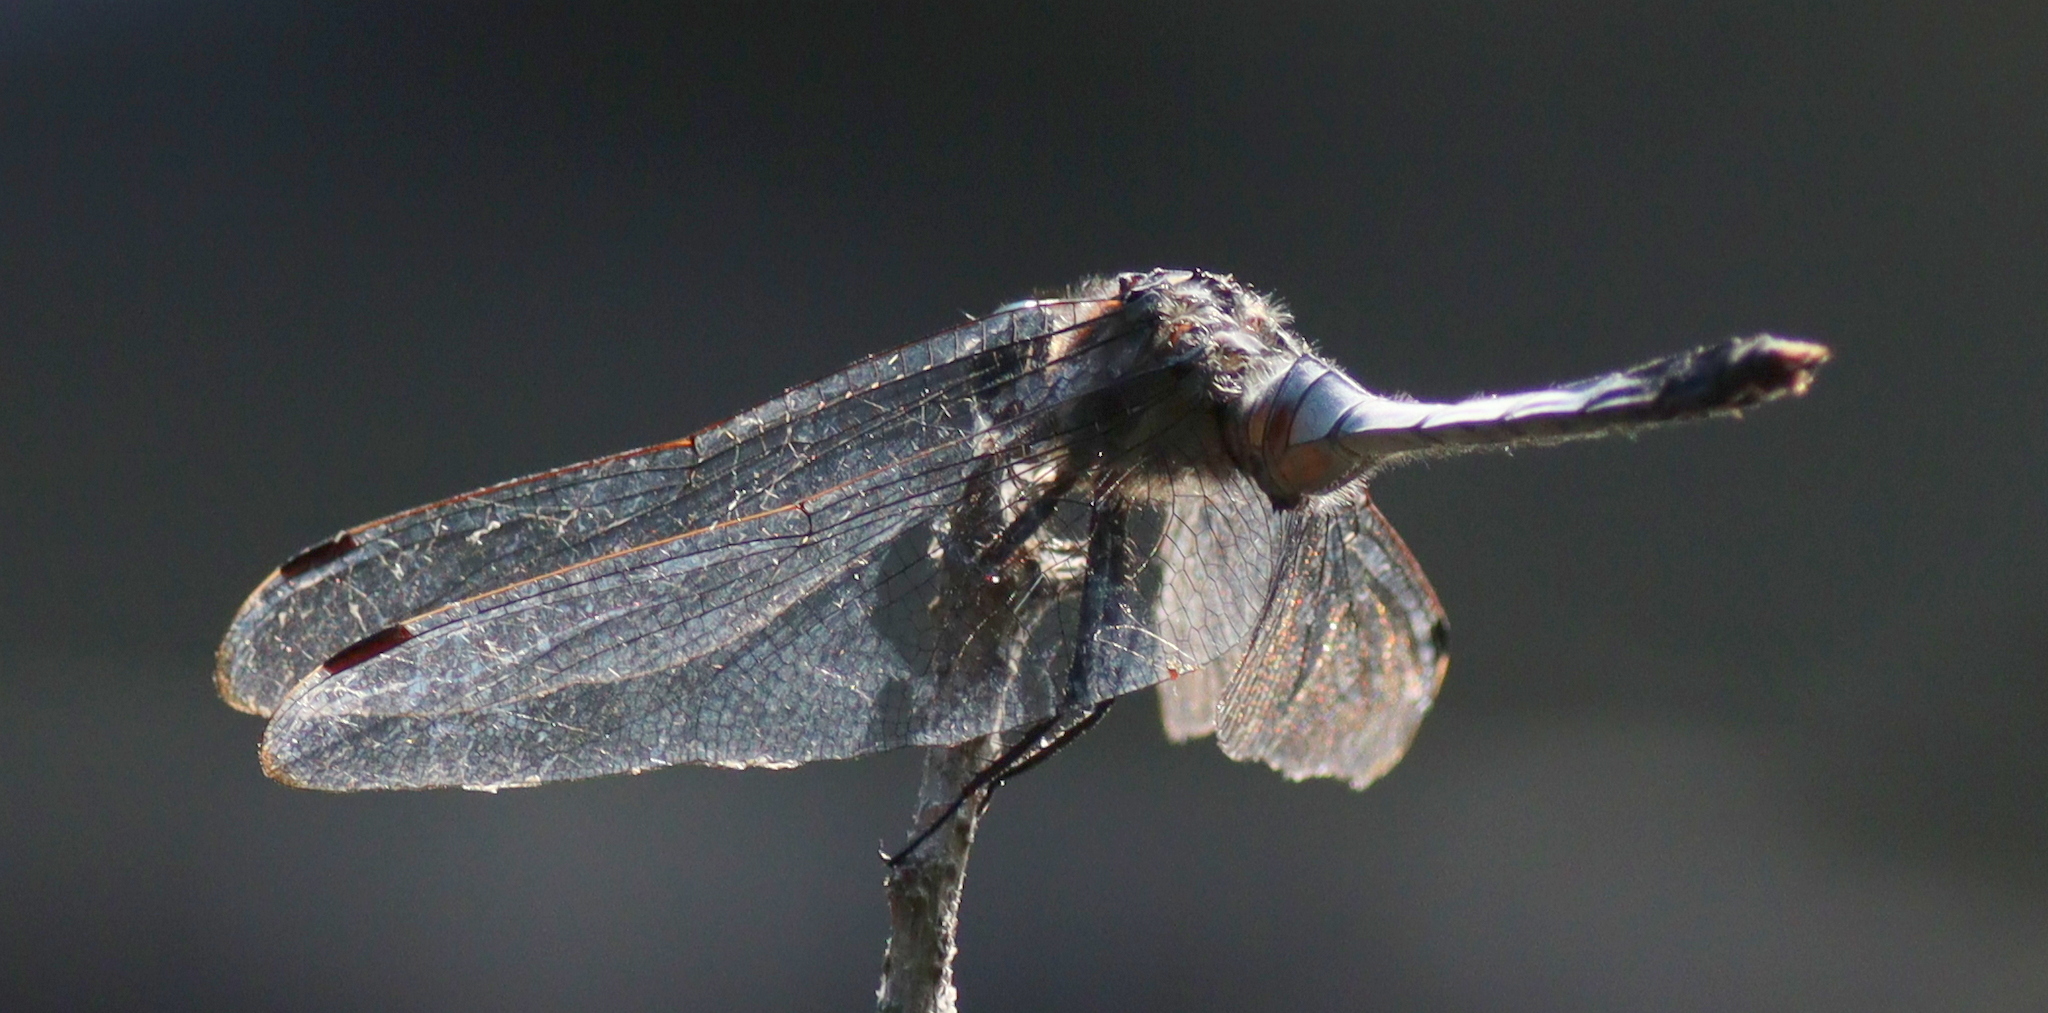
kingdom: Animalia
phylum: Arthropoda
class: Insecta
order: Odonata
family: Libellulidae
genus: Orthetrum
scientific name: Orthetrum albistylum
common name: White-tailed skimmer
